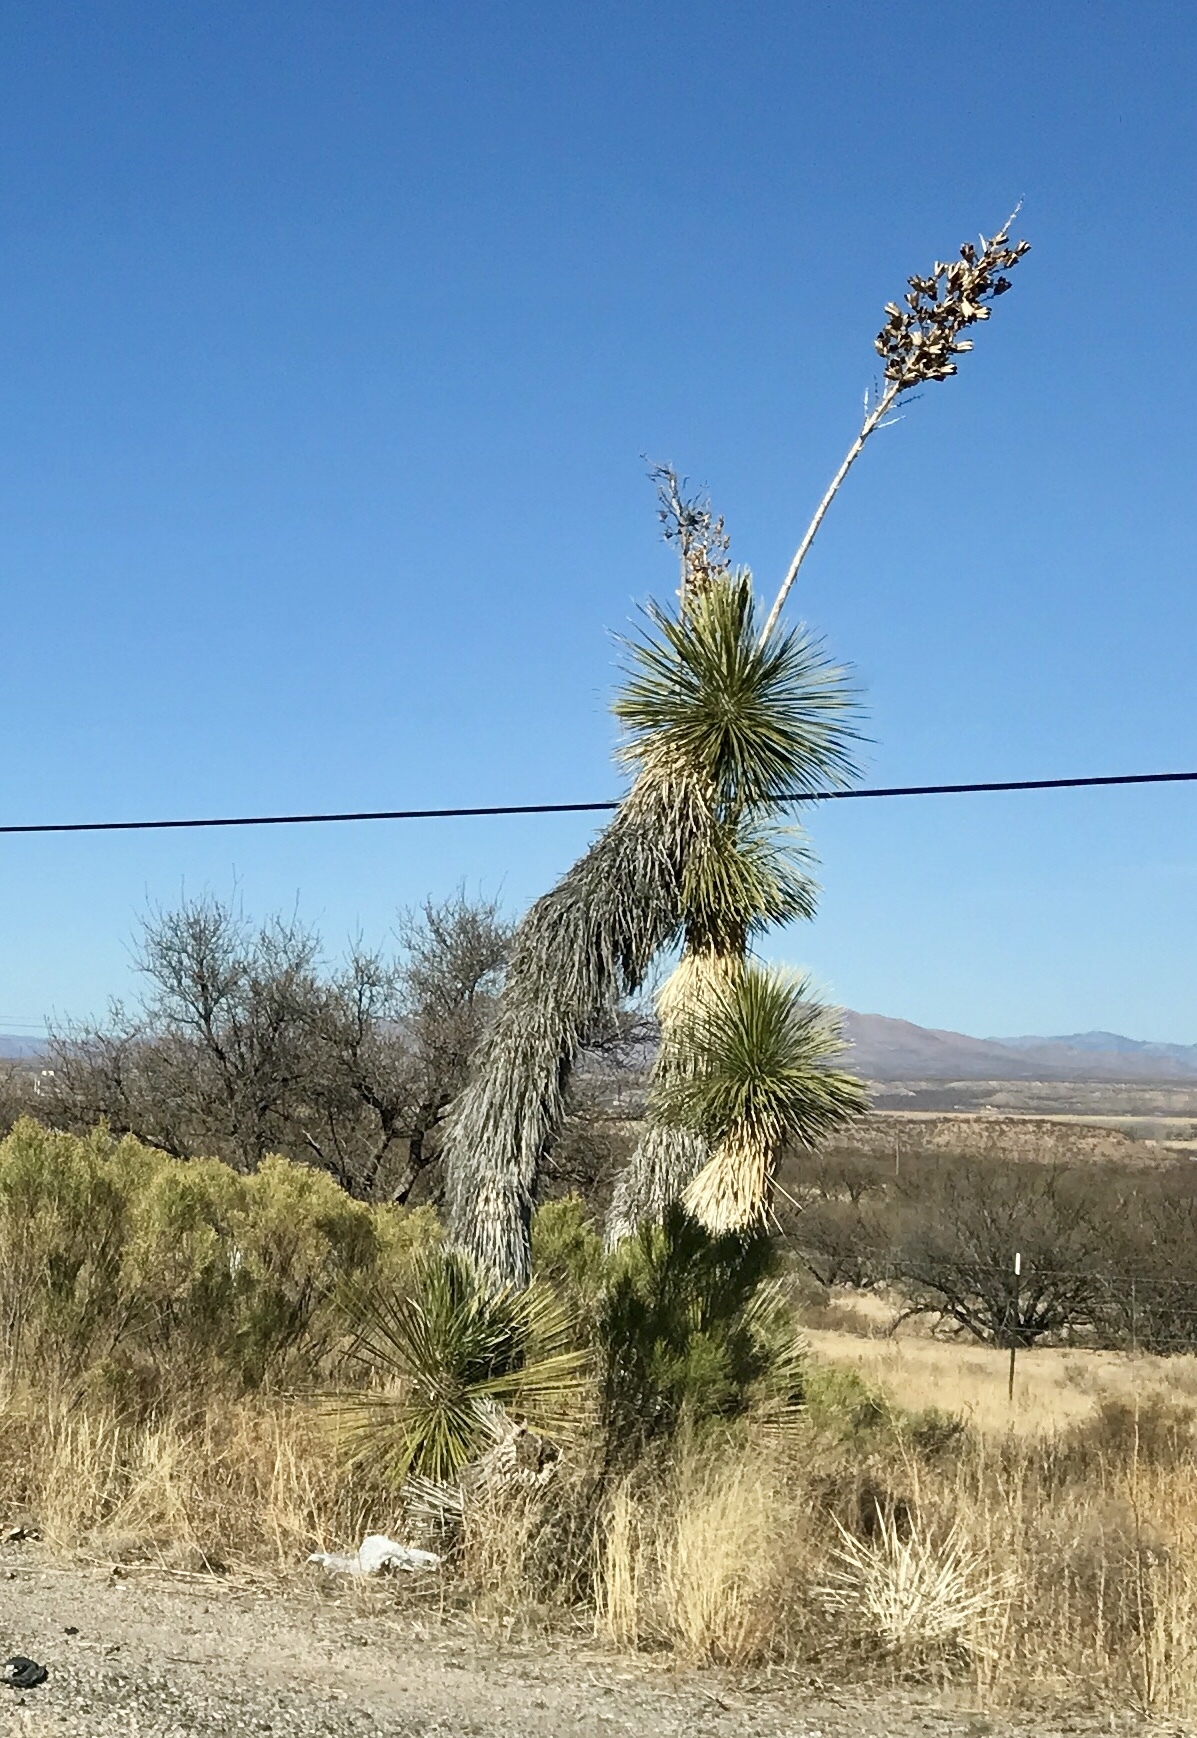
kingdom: Plantae
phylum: Tracheophyta
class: Liliopsida
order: Asparagales
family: Asparagaceae
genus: Yucca
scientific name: Yucca elata
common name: Palmella
